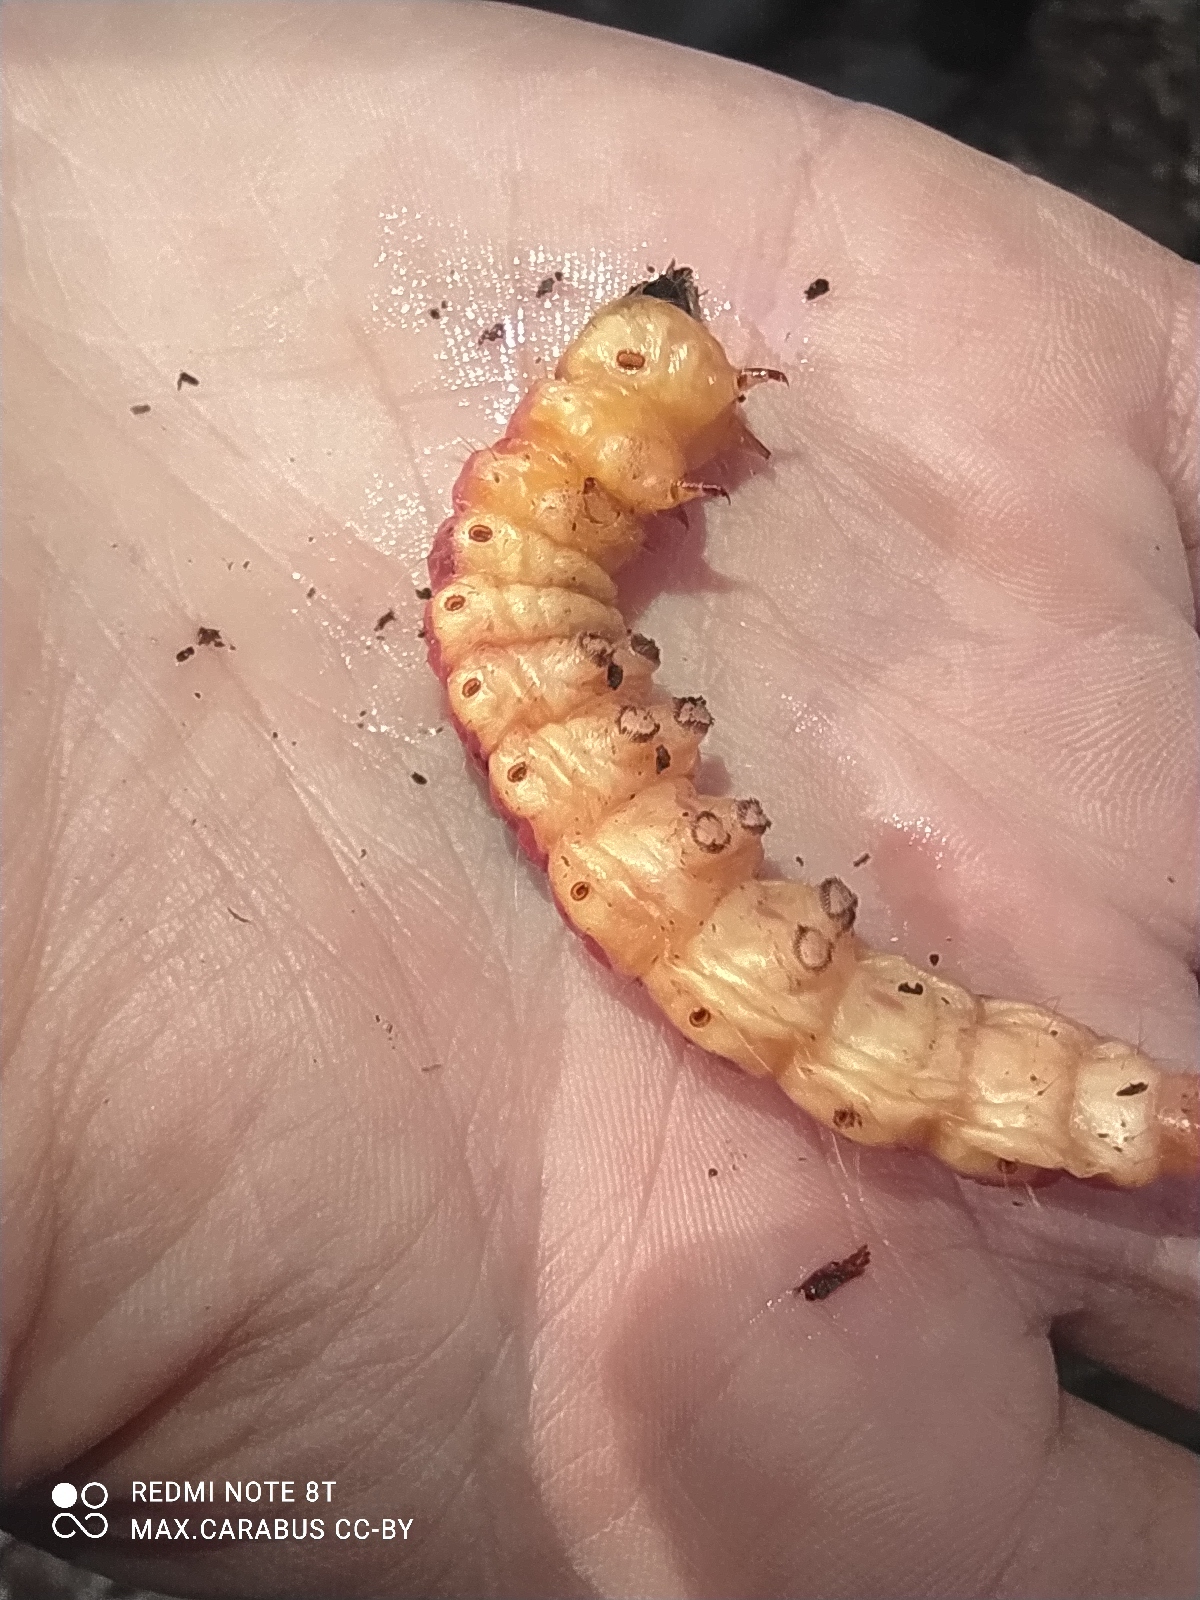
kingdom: Animalia
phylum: Arthropoda
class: Insecta
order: Lepidoptera
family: Cossidae
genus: Cossus
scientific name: Cossus cossus
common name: Goat moth
